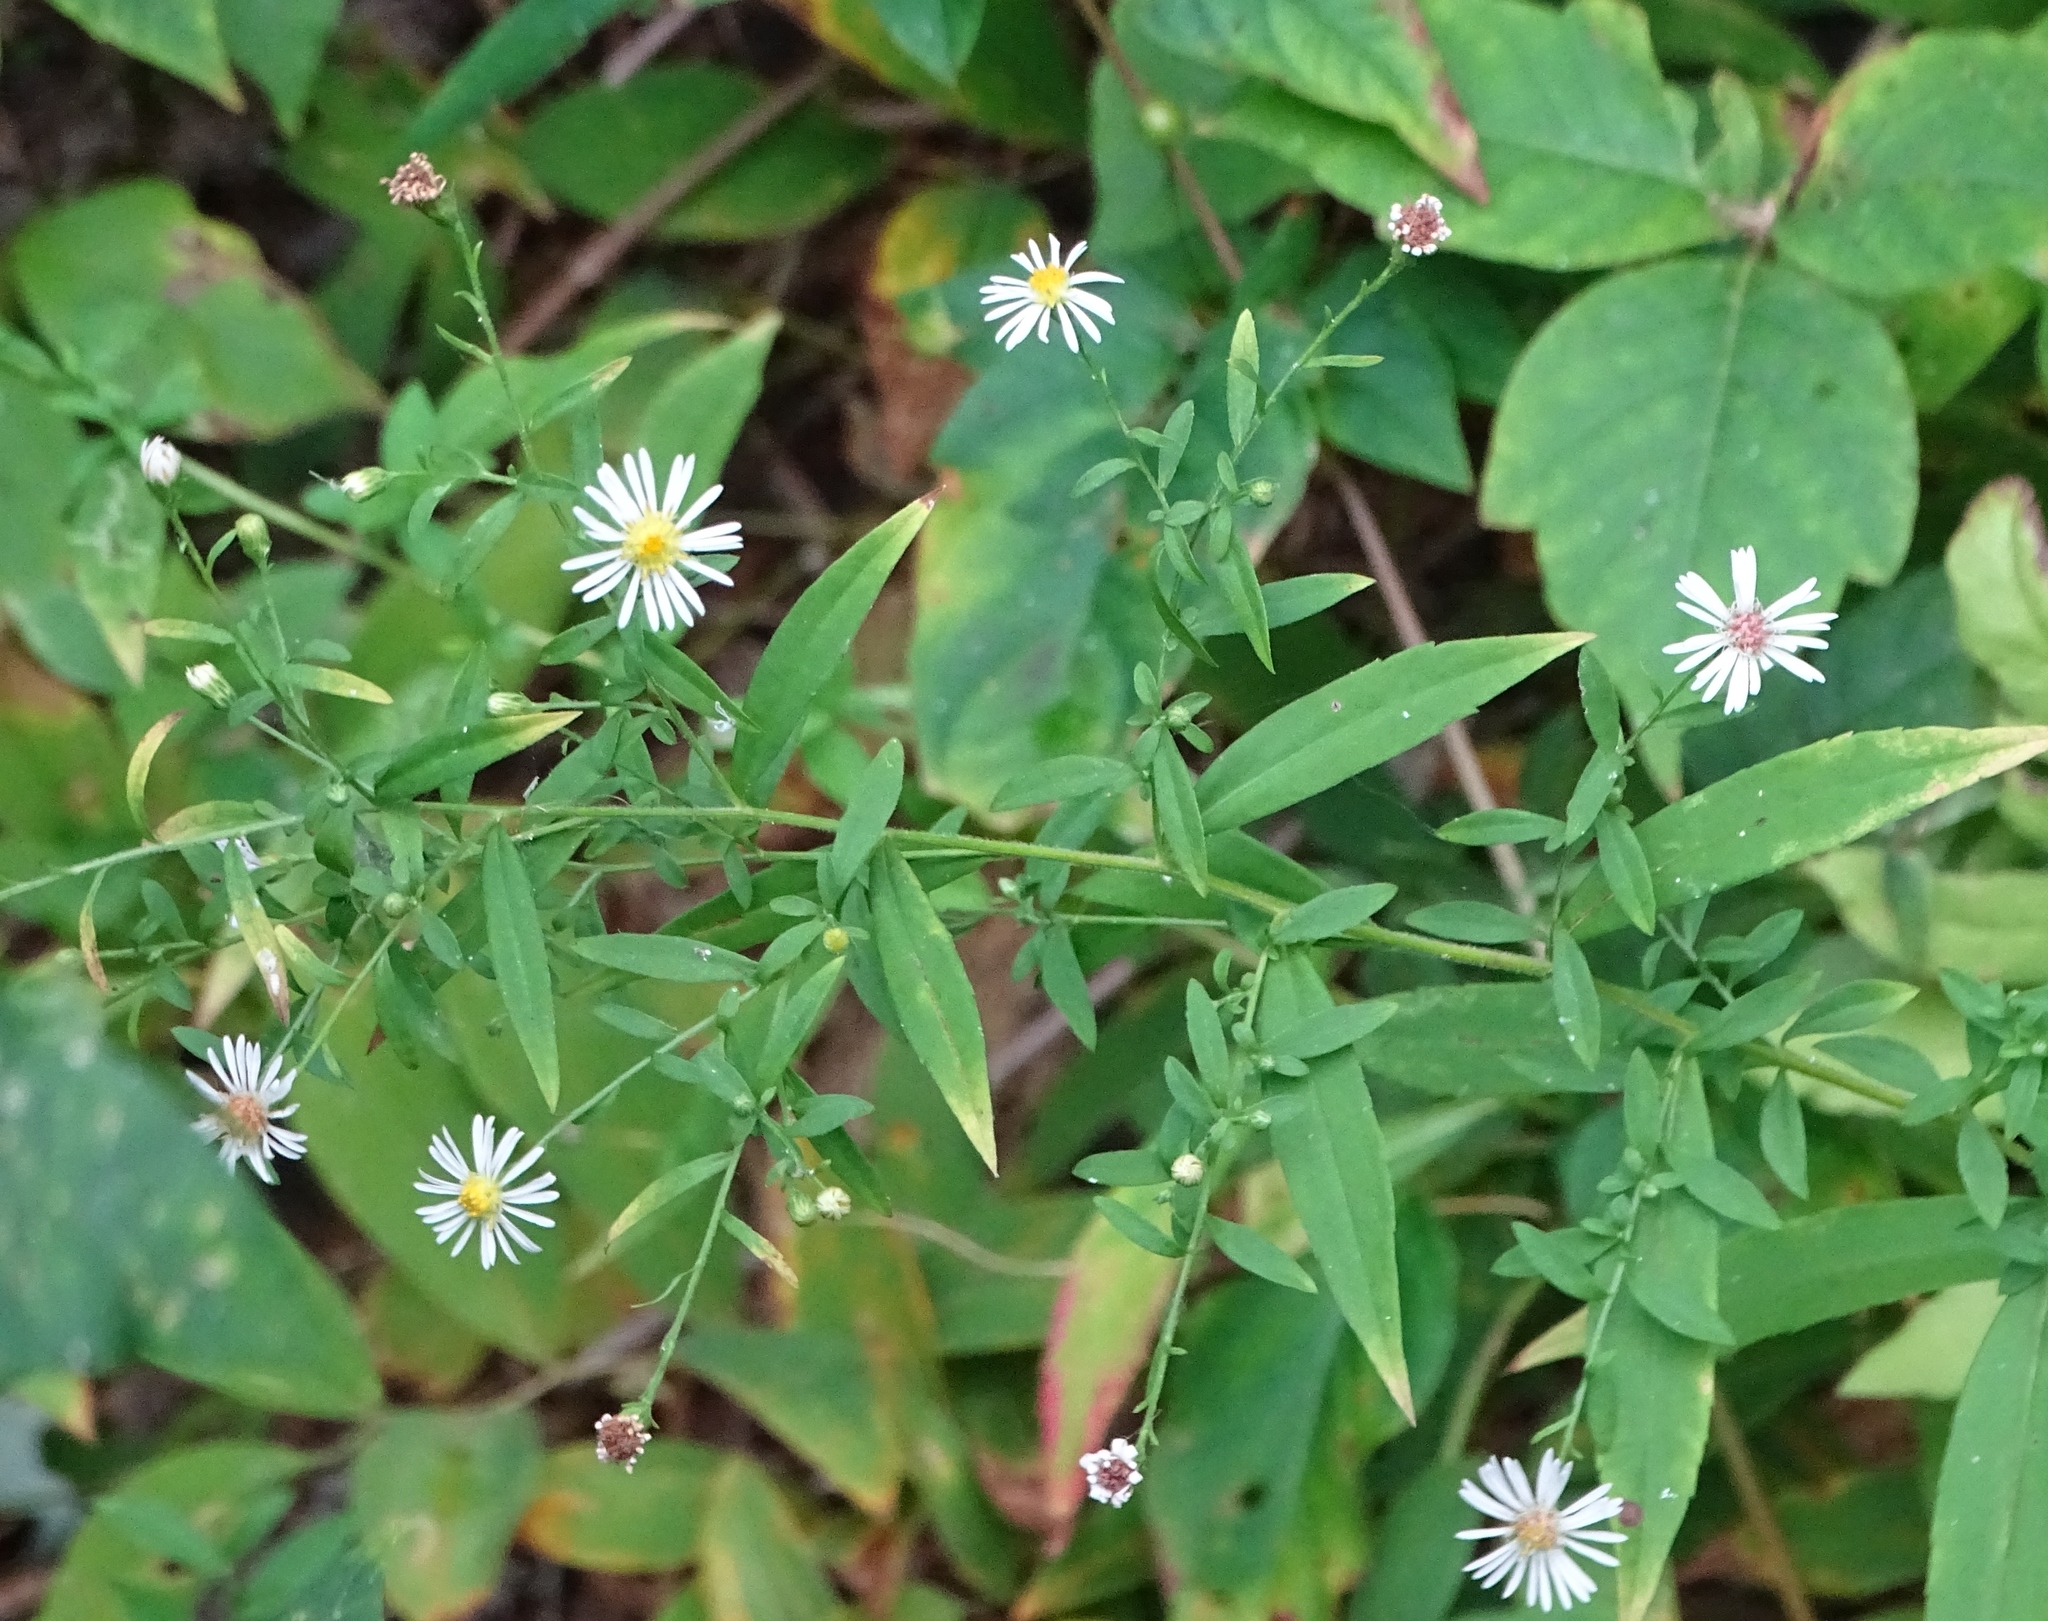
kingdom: Plantae
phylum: Tracheophyta
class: Magnoliopsida
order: Asterales
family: Asteraceae
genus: Symphyotrichum
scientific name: Symphyotrichum ontarionis
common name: Bottomland aster
